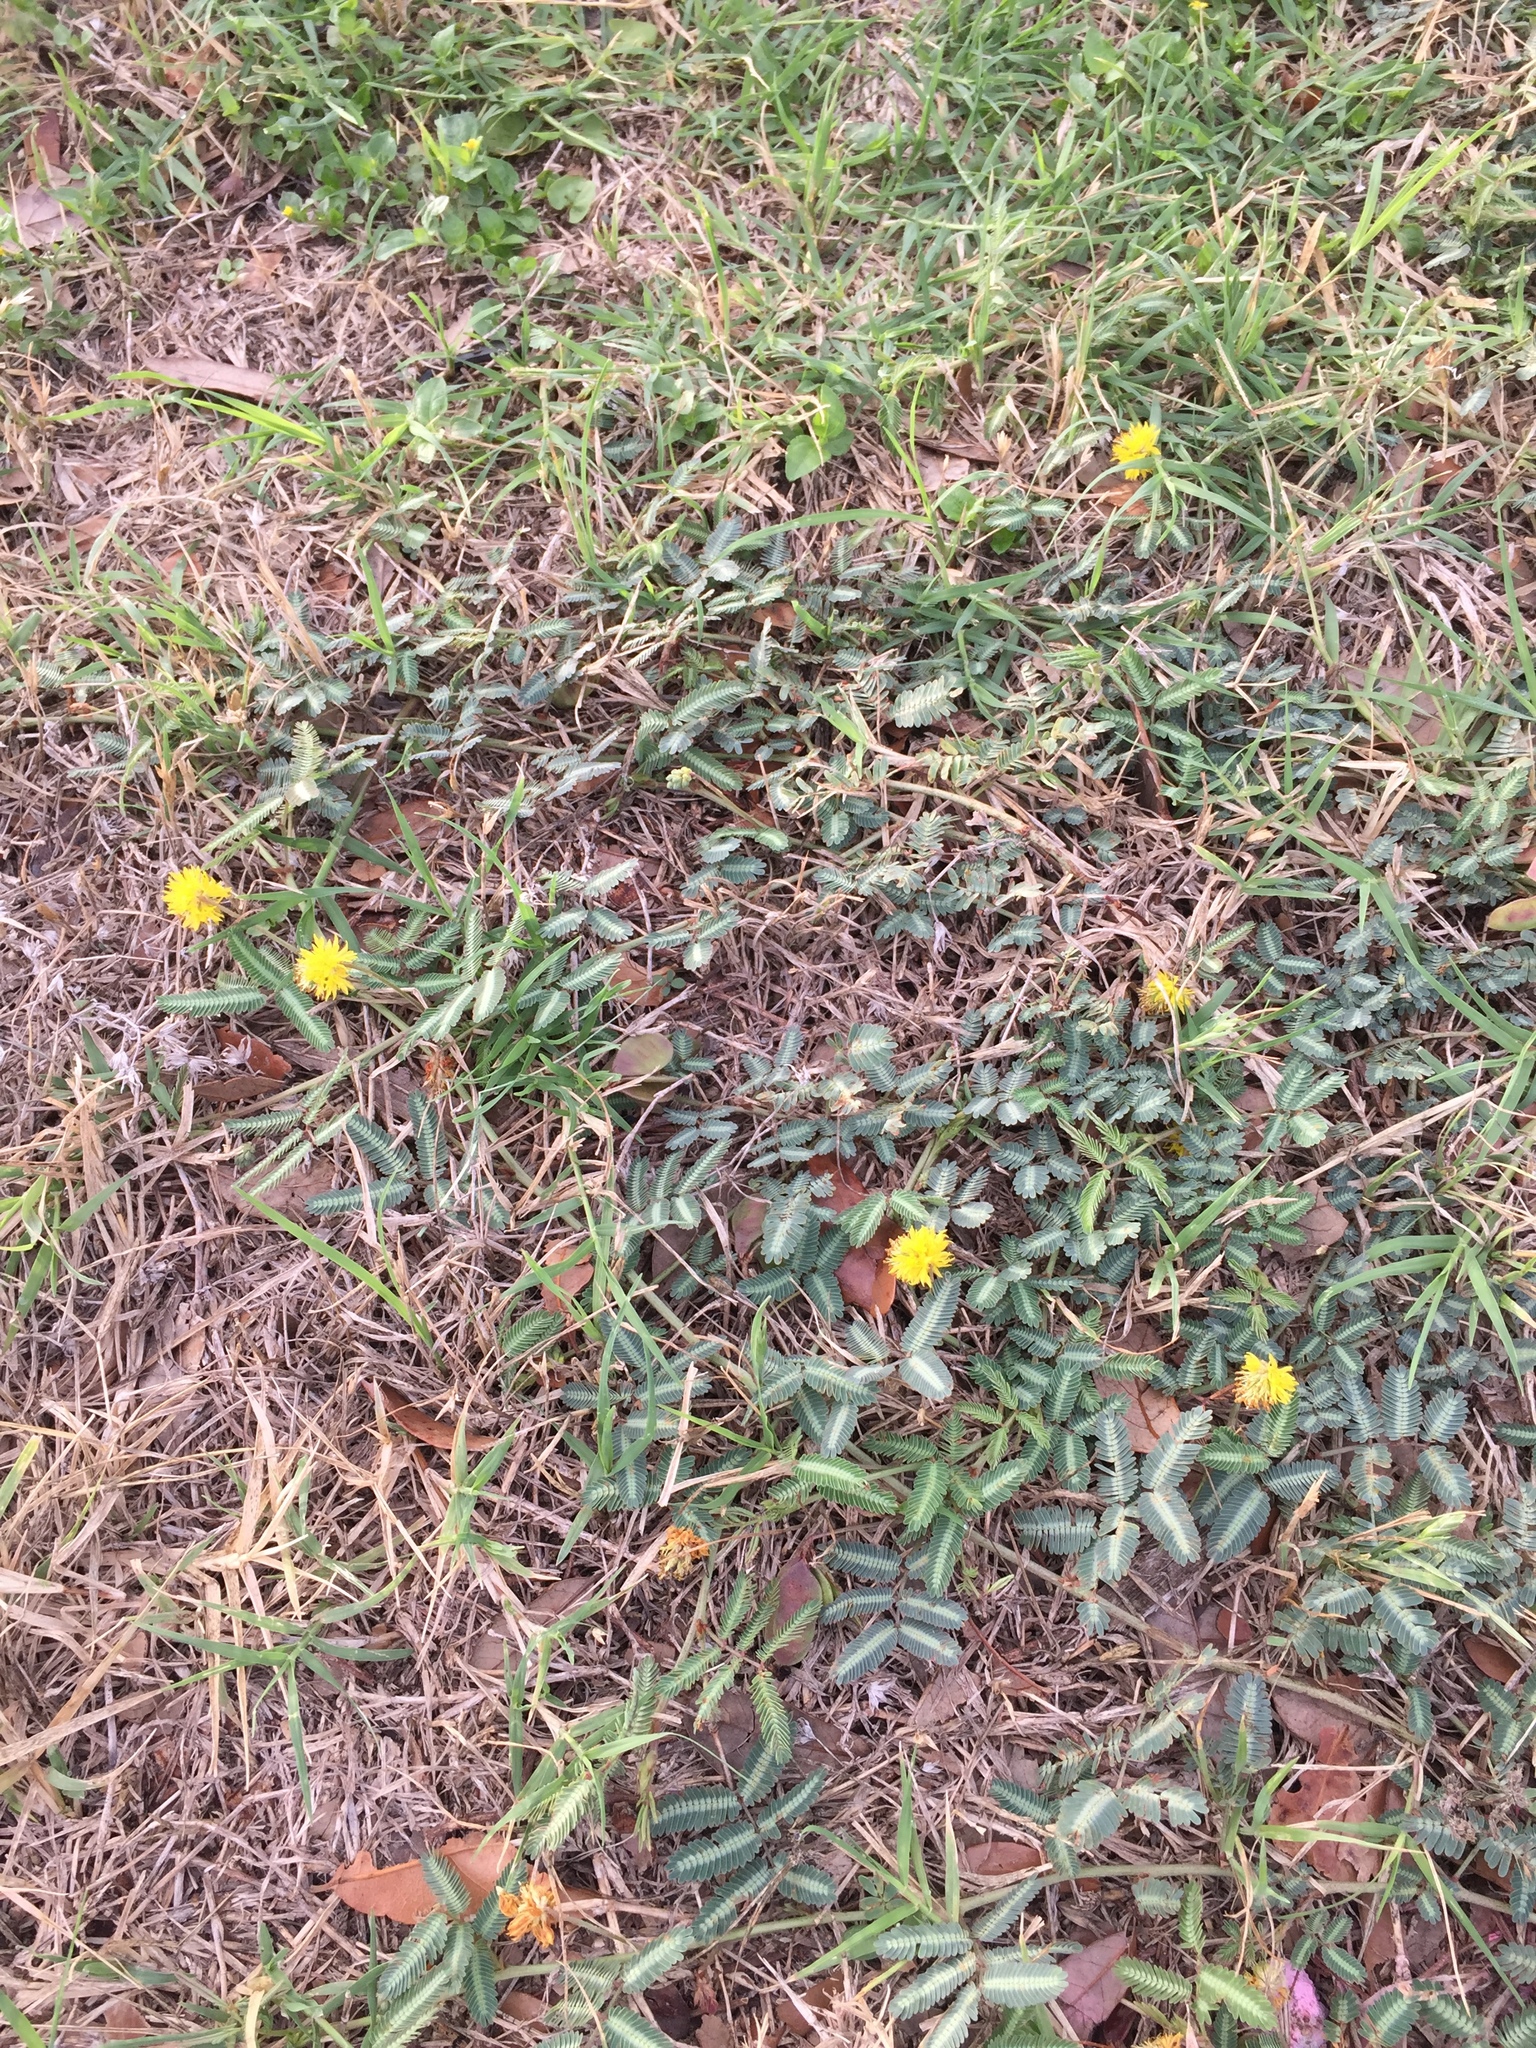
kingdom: Plantae
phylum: Tracheophyta
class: Magnoliopsida
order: Fabales
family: Fabaceae
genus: Neptunia
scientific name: Neptunia pubescens
